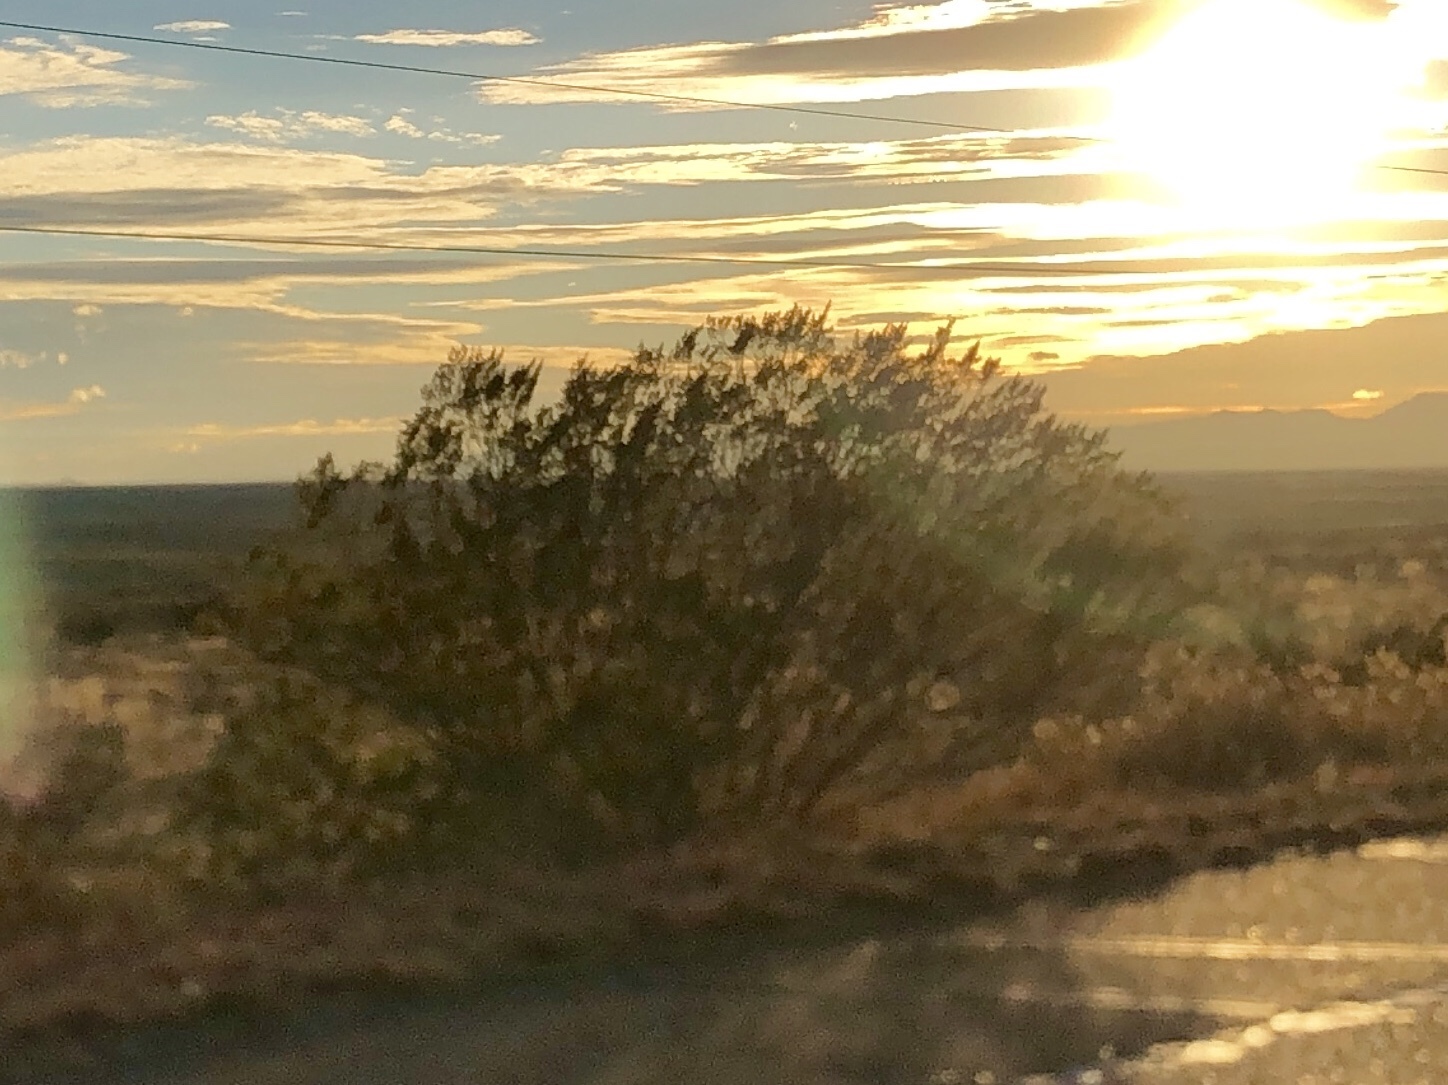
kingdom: Plantae
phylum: Tracheophyta
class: Magnoliopsida
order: Zygophyllales
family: Zygophyllaceae
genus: Larrea
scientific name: Larrea tridentata
